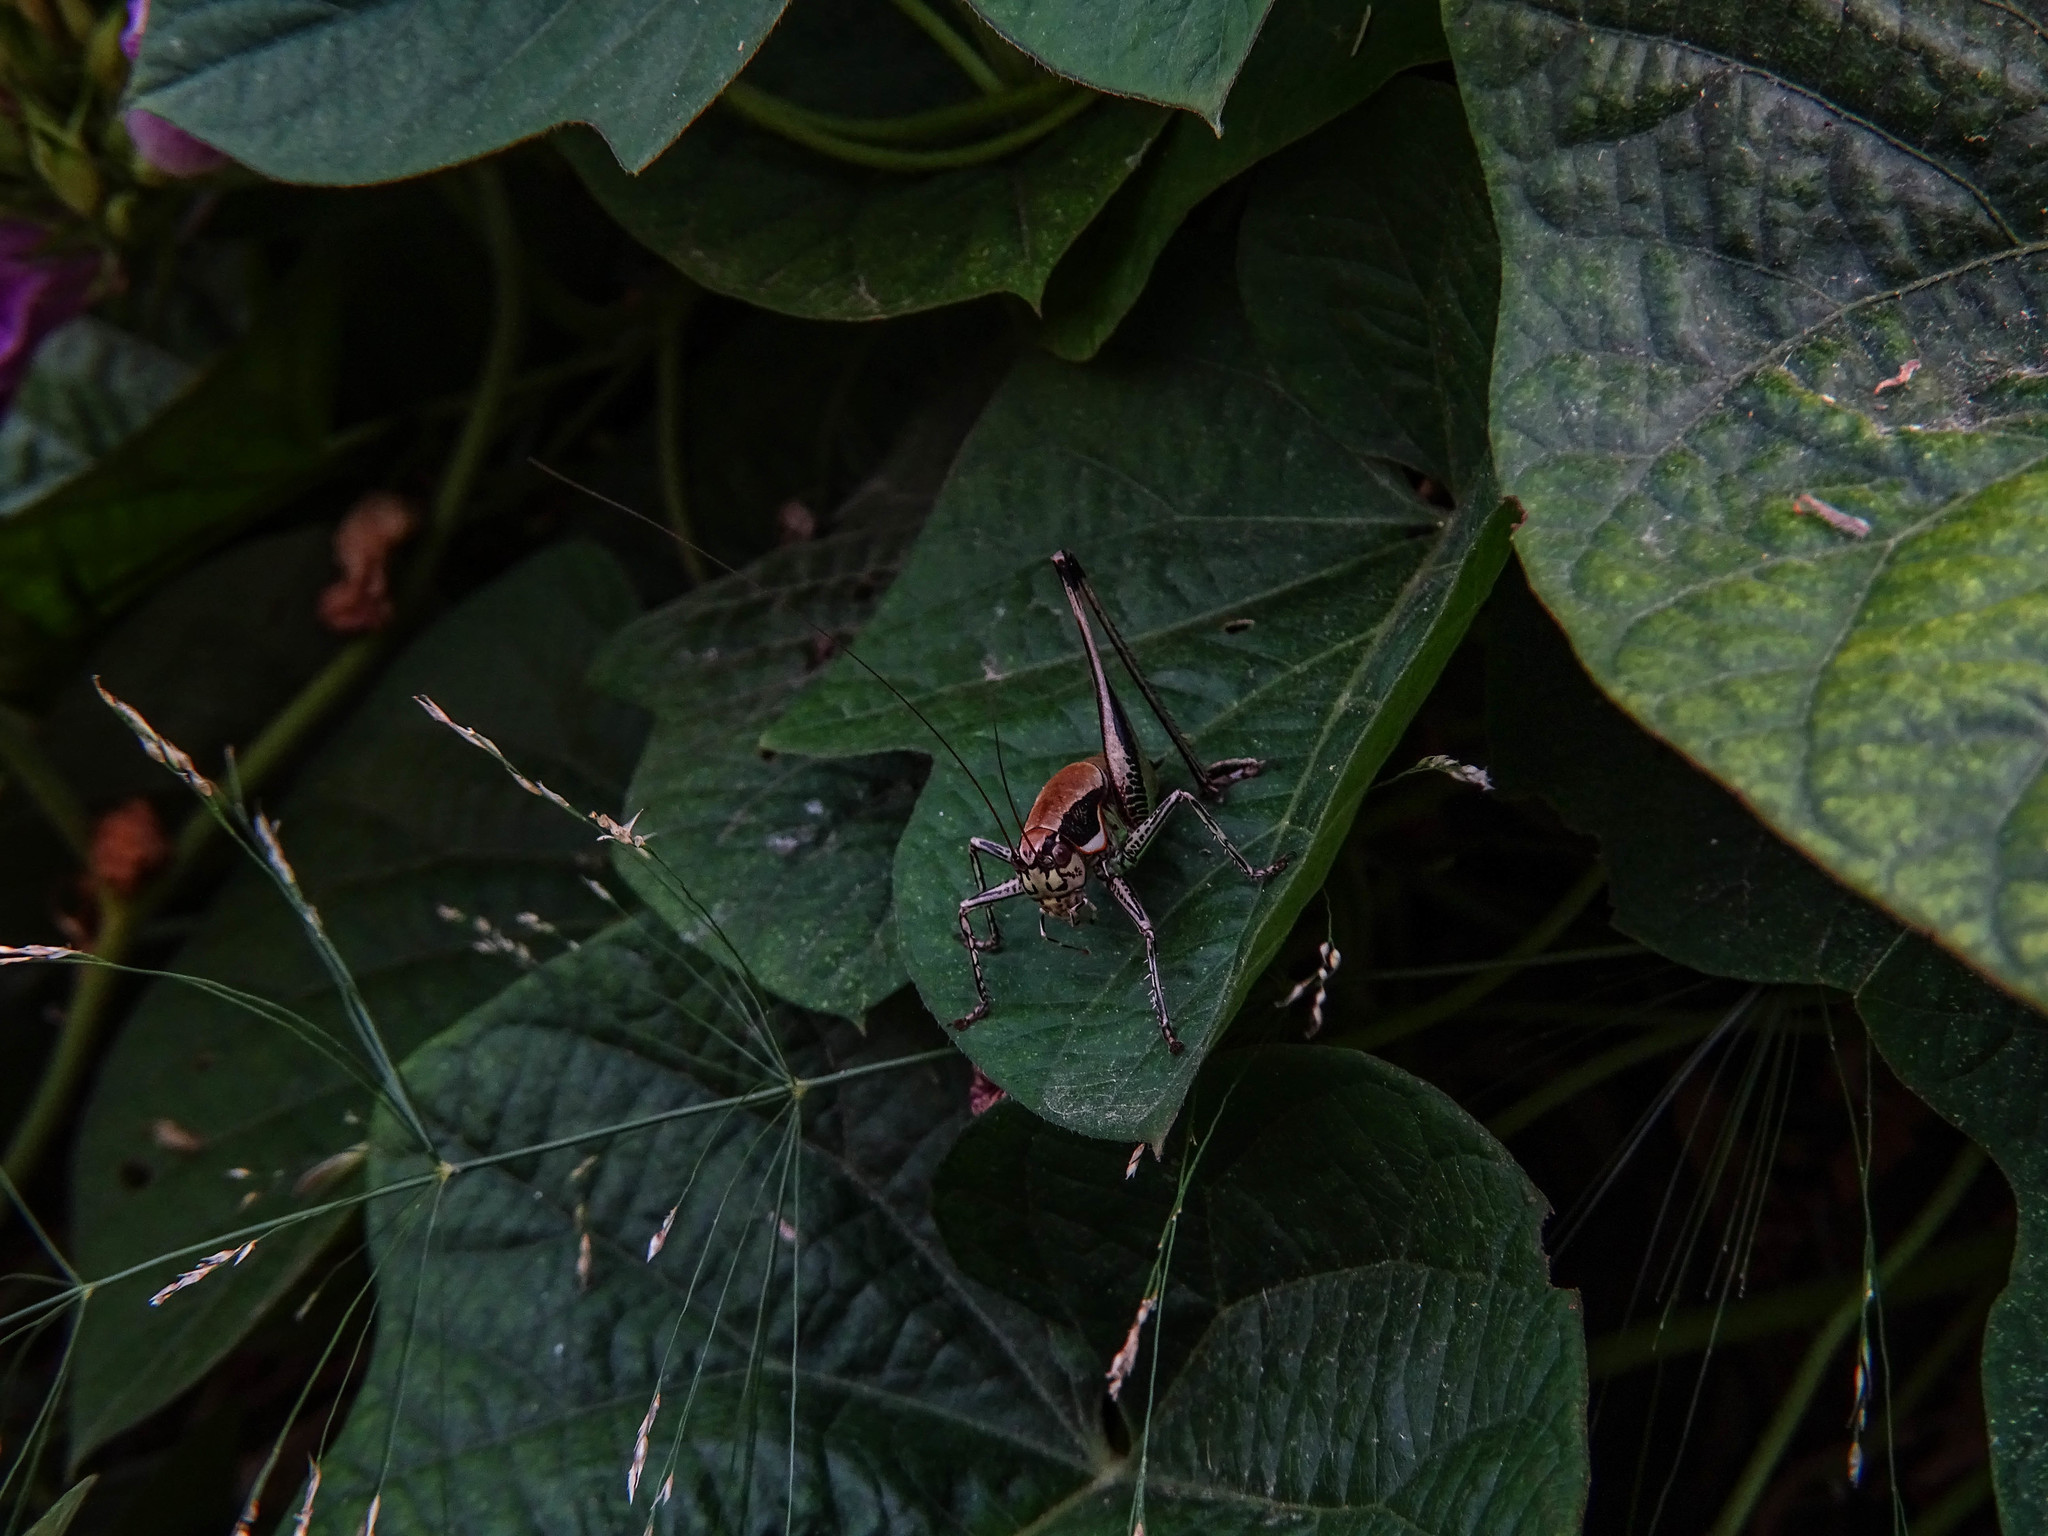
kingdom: Animalia
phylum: Arthropoda
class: Insecta
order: Orthoptera
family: Tettigoniidae
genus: Eupholidoptera
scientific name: Eupholidoptera smyrnensis
